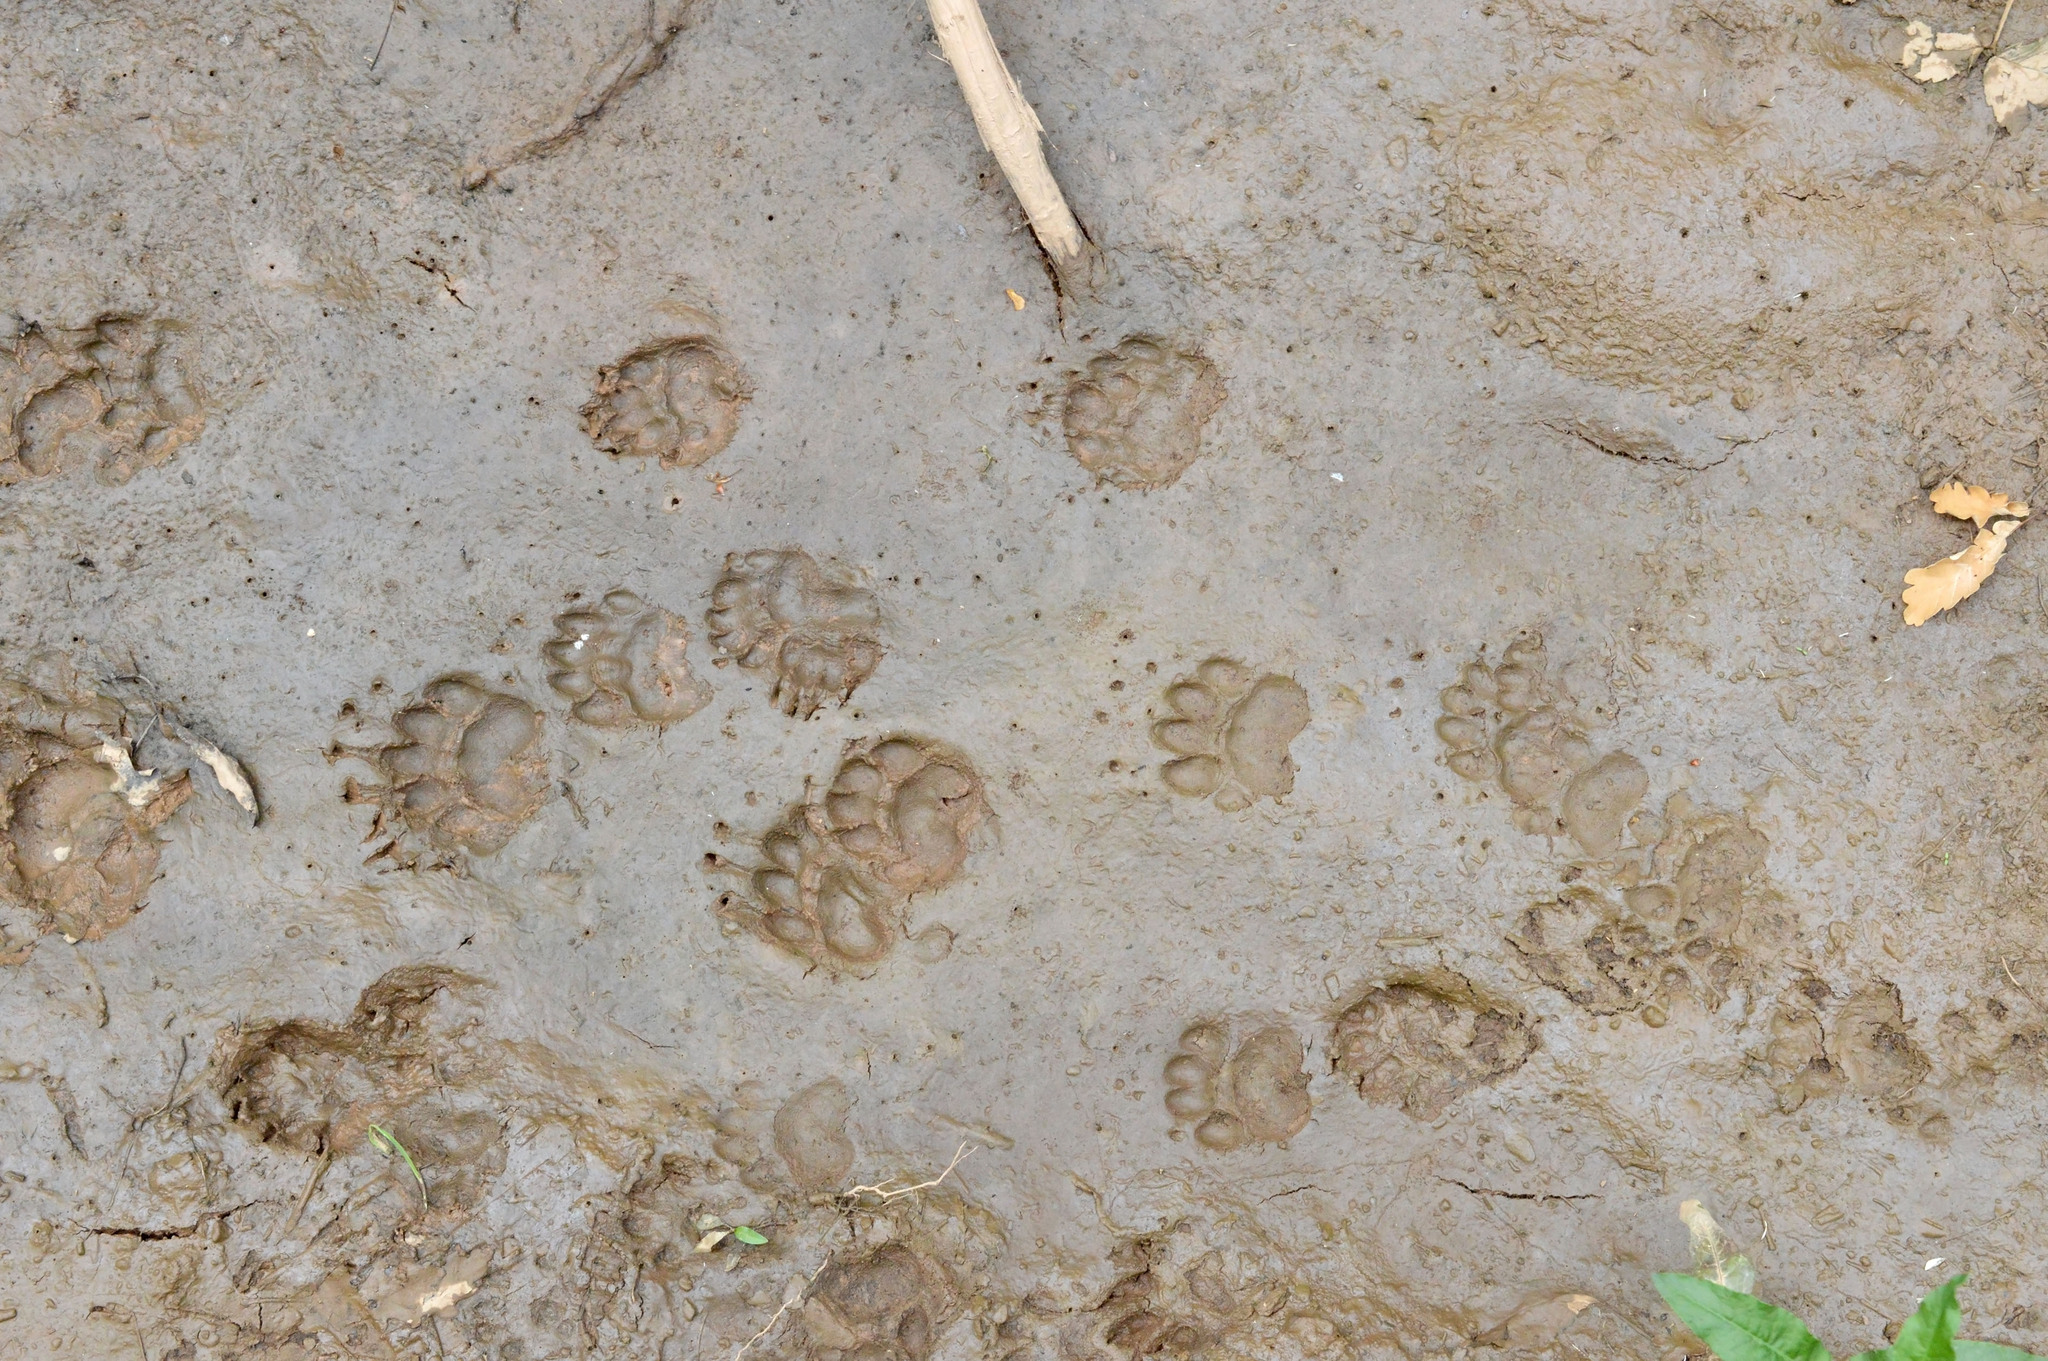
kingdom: Animalia
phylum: Chordata
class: Mammalia
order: Carnivora
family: Mustelidae
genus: Meles
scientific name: Meles meles
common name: Eurasian badger
